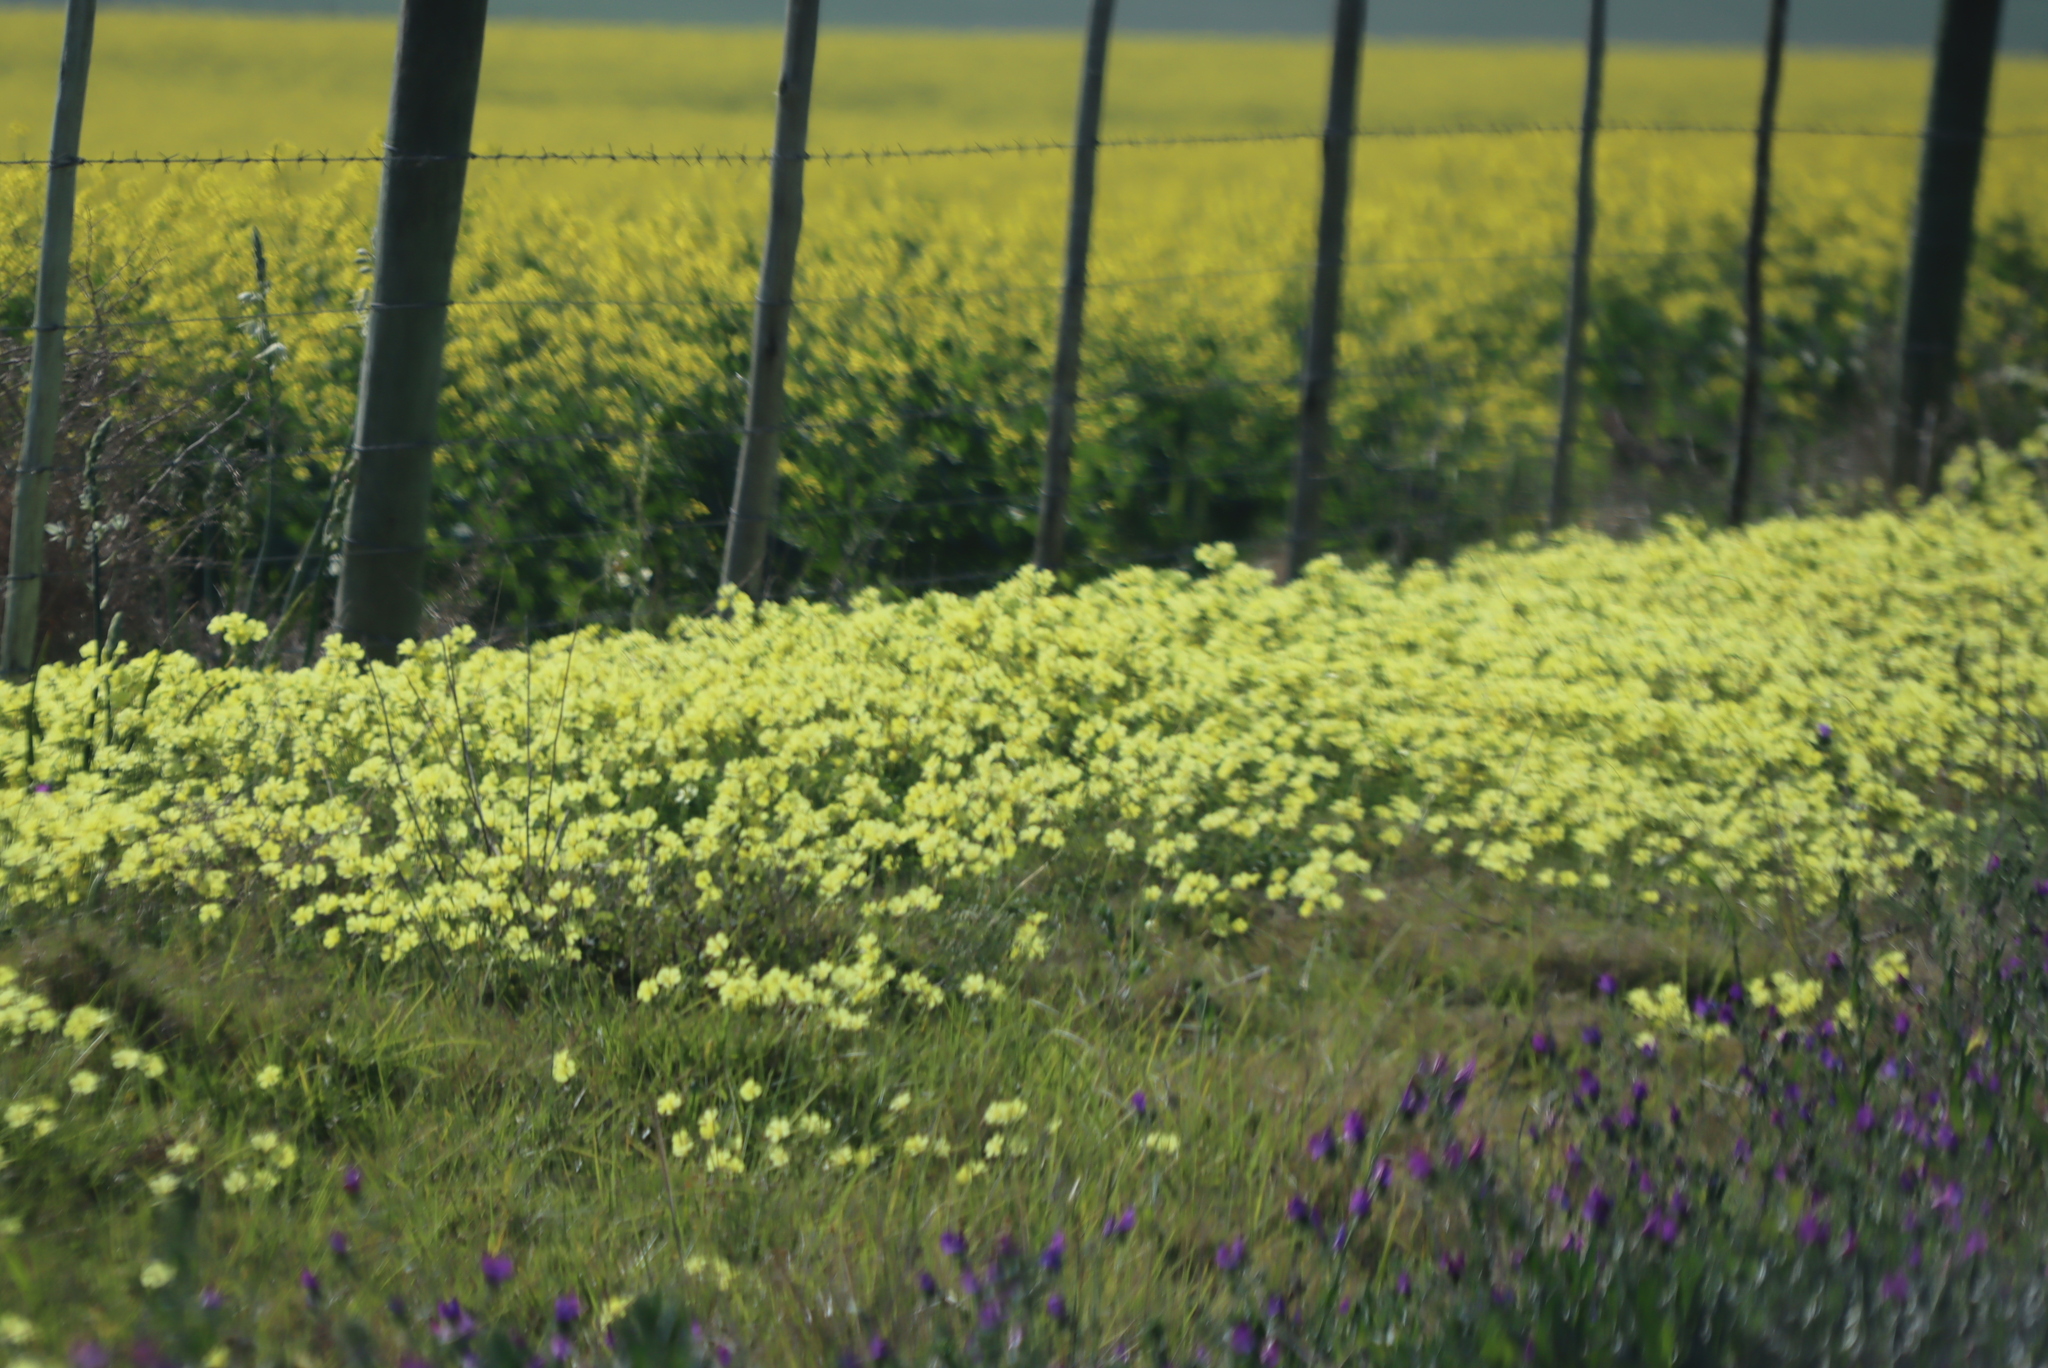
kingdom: Plantae
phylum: Tracheophyta
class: Magnoliopsida
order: Oxalidales
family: Oxalidaceae
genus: Oxalis
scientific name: Oxalis pes-caprae
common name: Bermuda-buttercup
